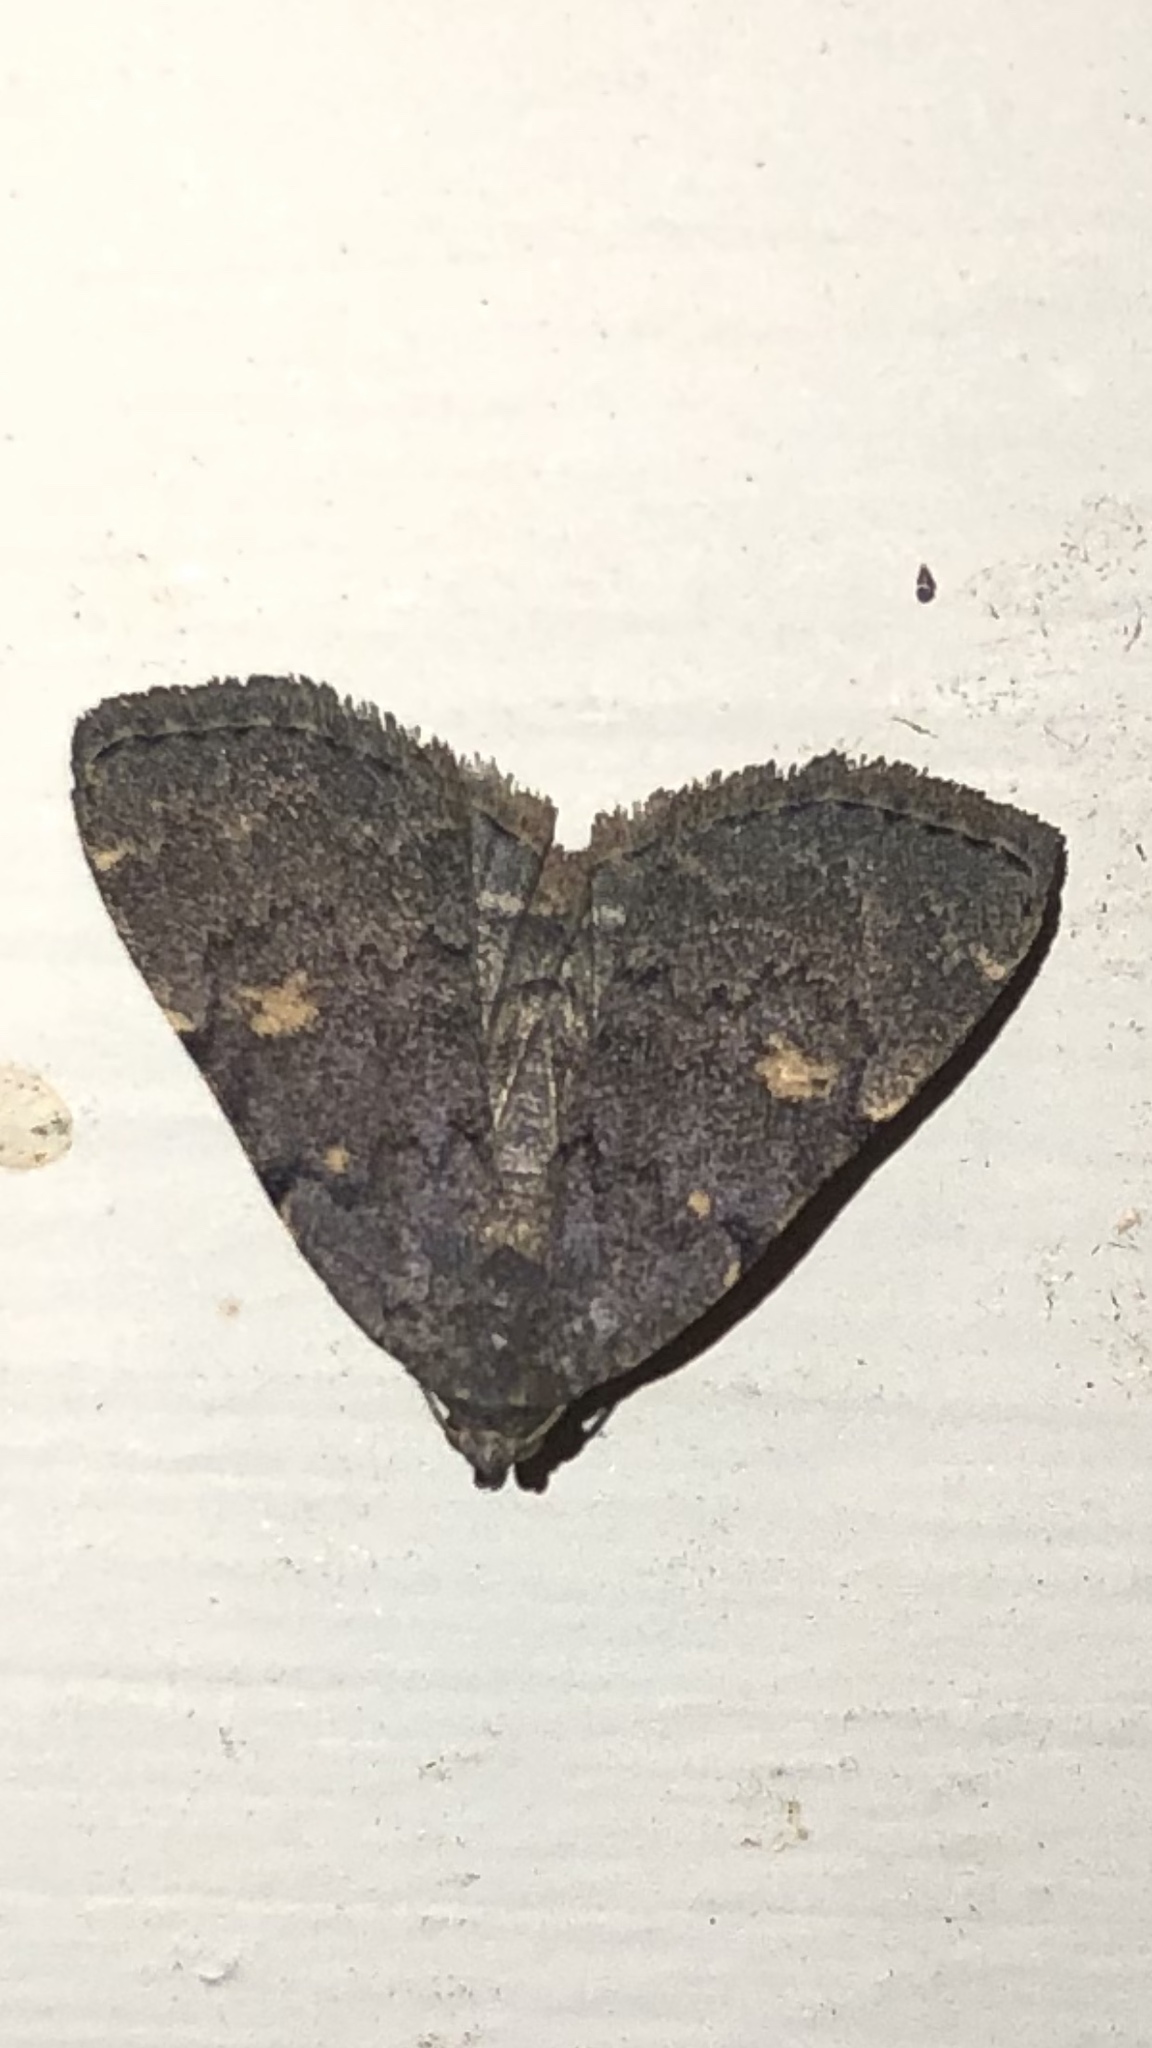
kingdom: Animalia
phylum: Arthropoda
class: Insecta
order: Lepidoptera
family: Erebidae
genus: Idia
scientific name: Idia aemula
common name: Common idia moth
